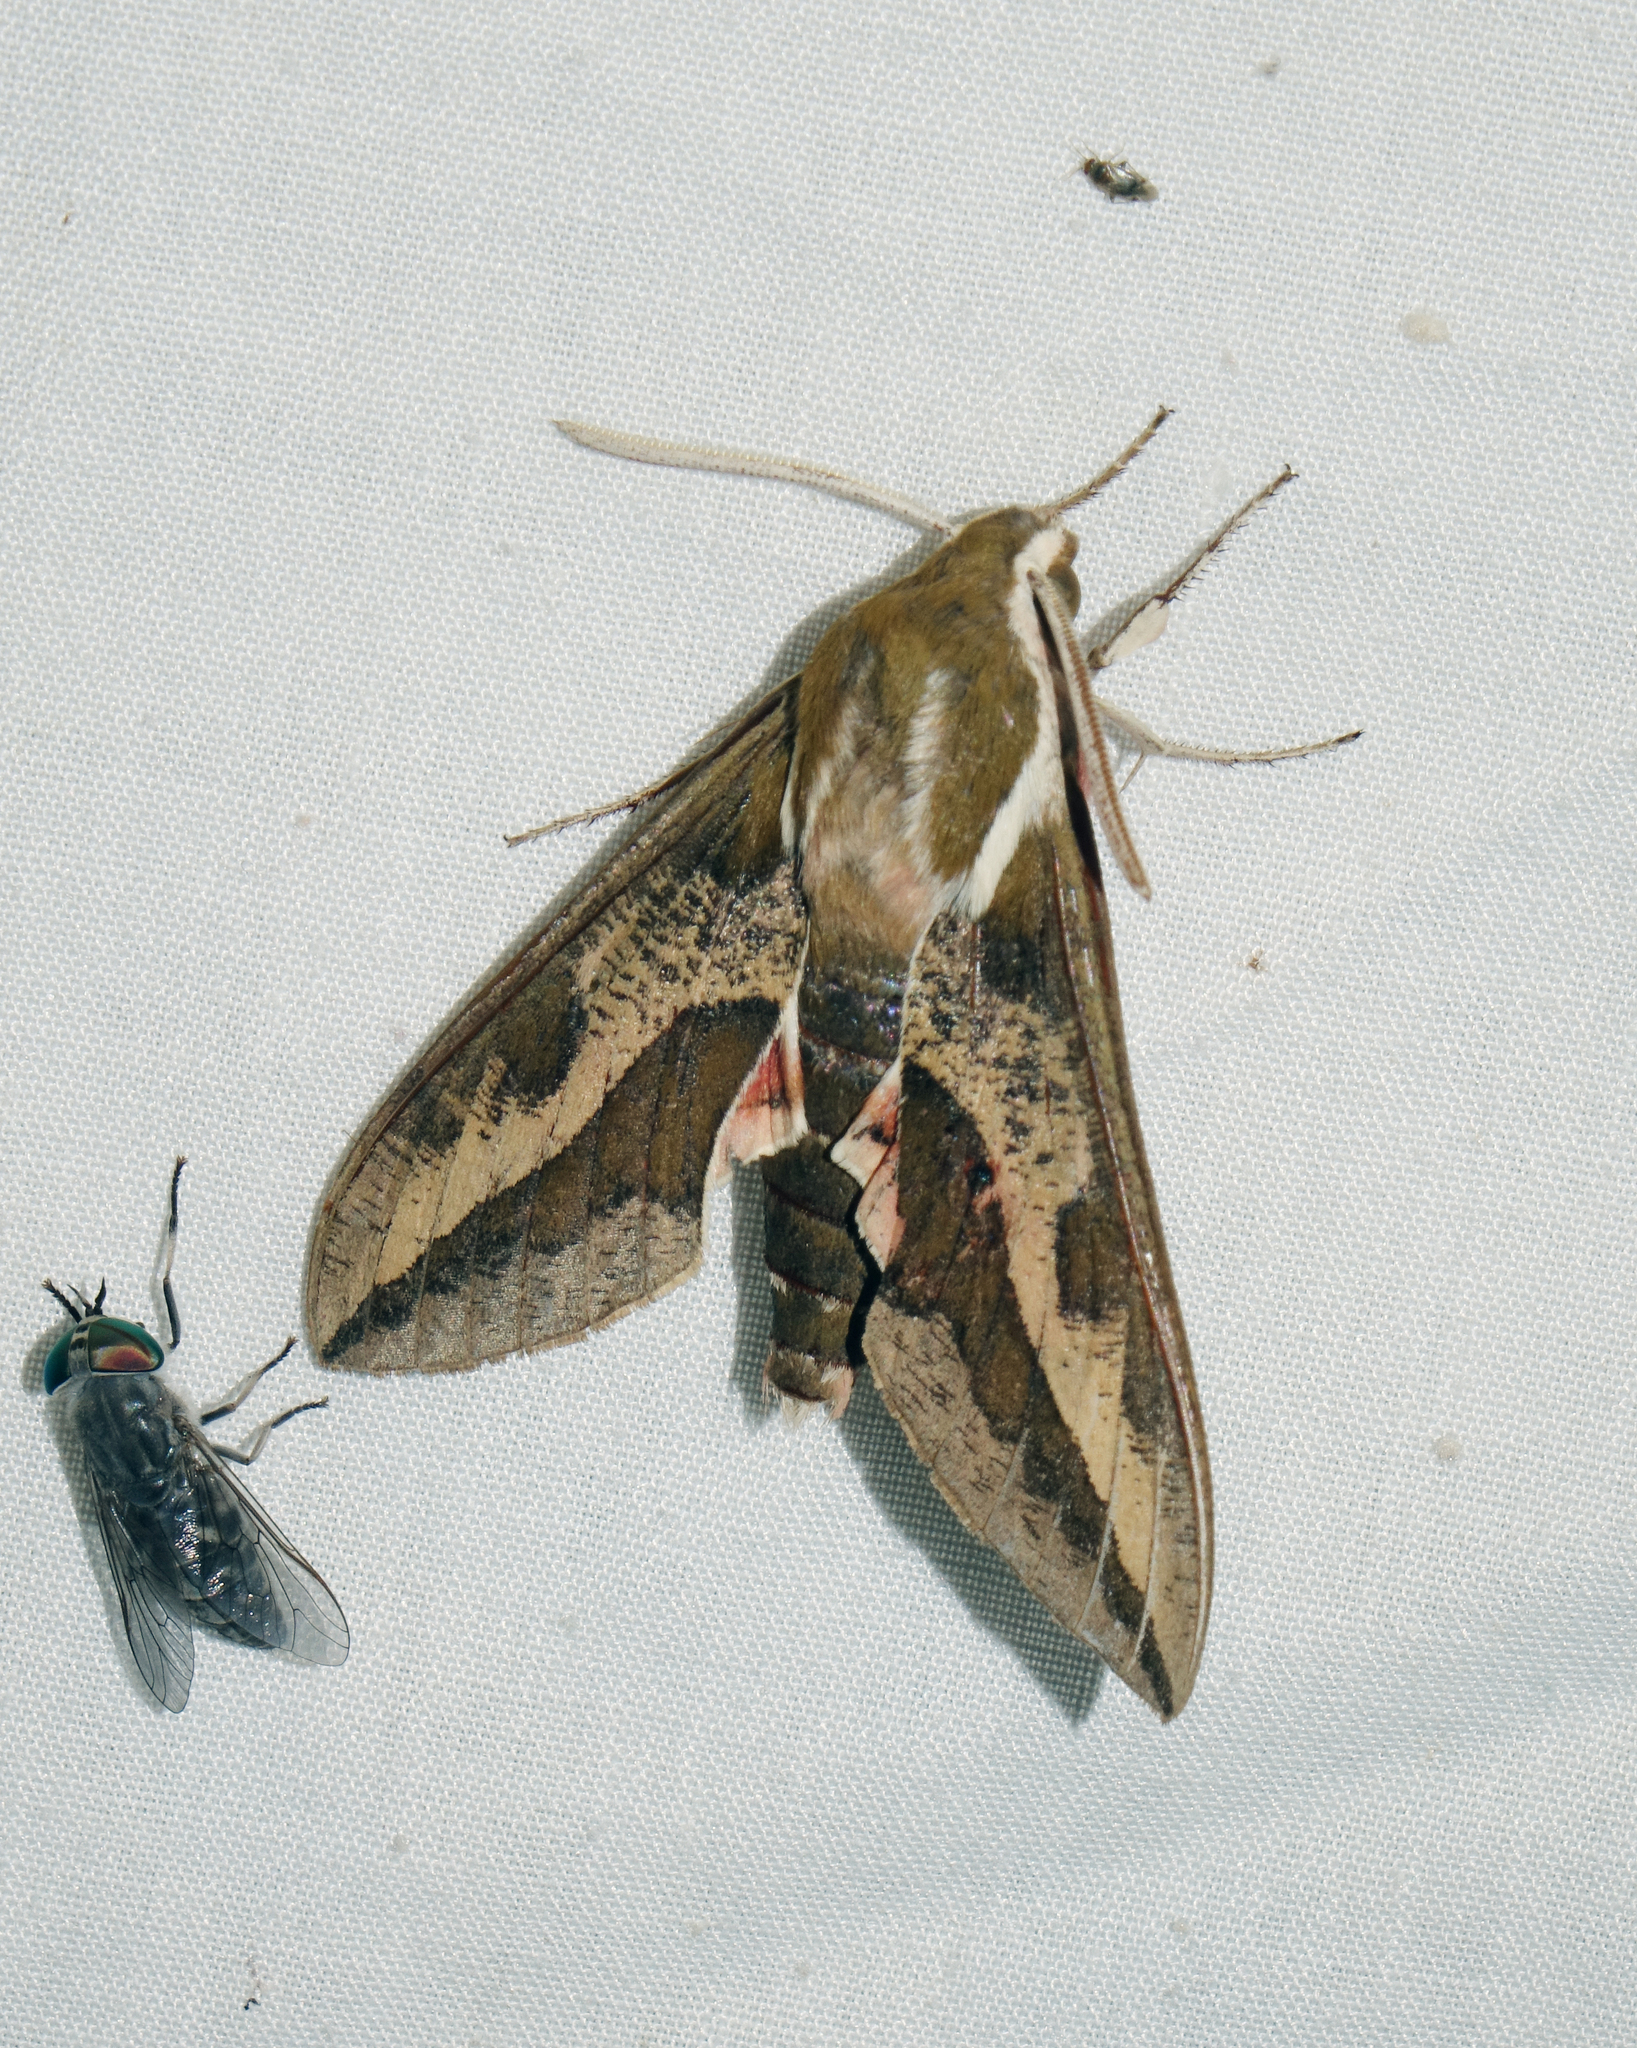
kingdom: Animalia
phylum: Arthropoda
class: Insecta
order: Lepidoptera
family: Sphingidae
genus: Hyles
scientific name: Hyles euphorbiae
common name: Spurge hawk-moth
